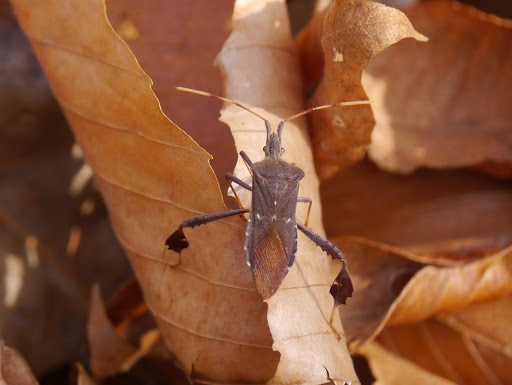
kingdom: Animalia
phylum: Arthropoda
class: Insecta
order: Hemiptera
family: Coreidae
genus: Leptoglossus
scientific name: Leptoglossus oppositus
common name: Northern leaf-footed bug
